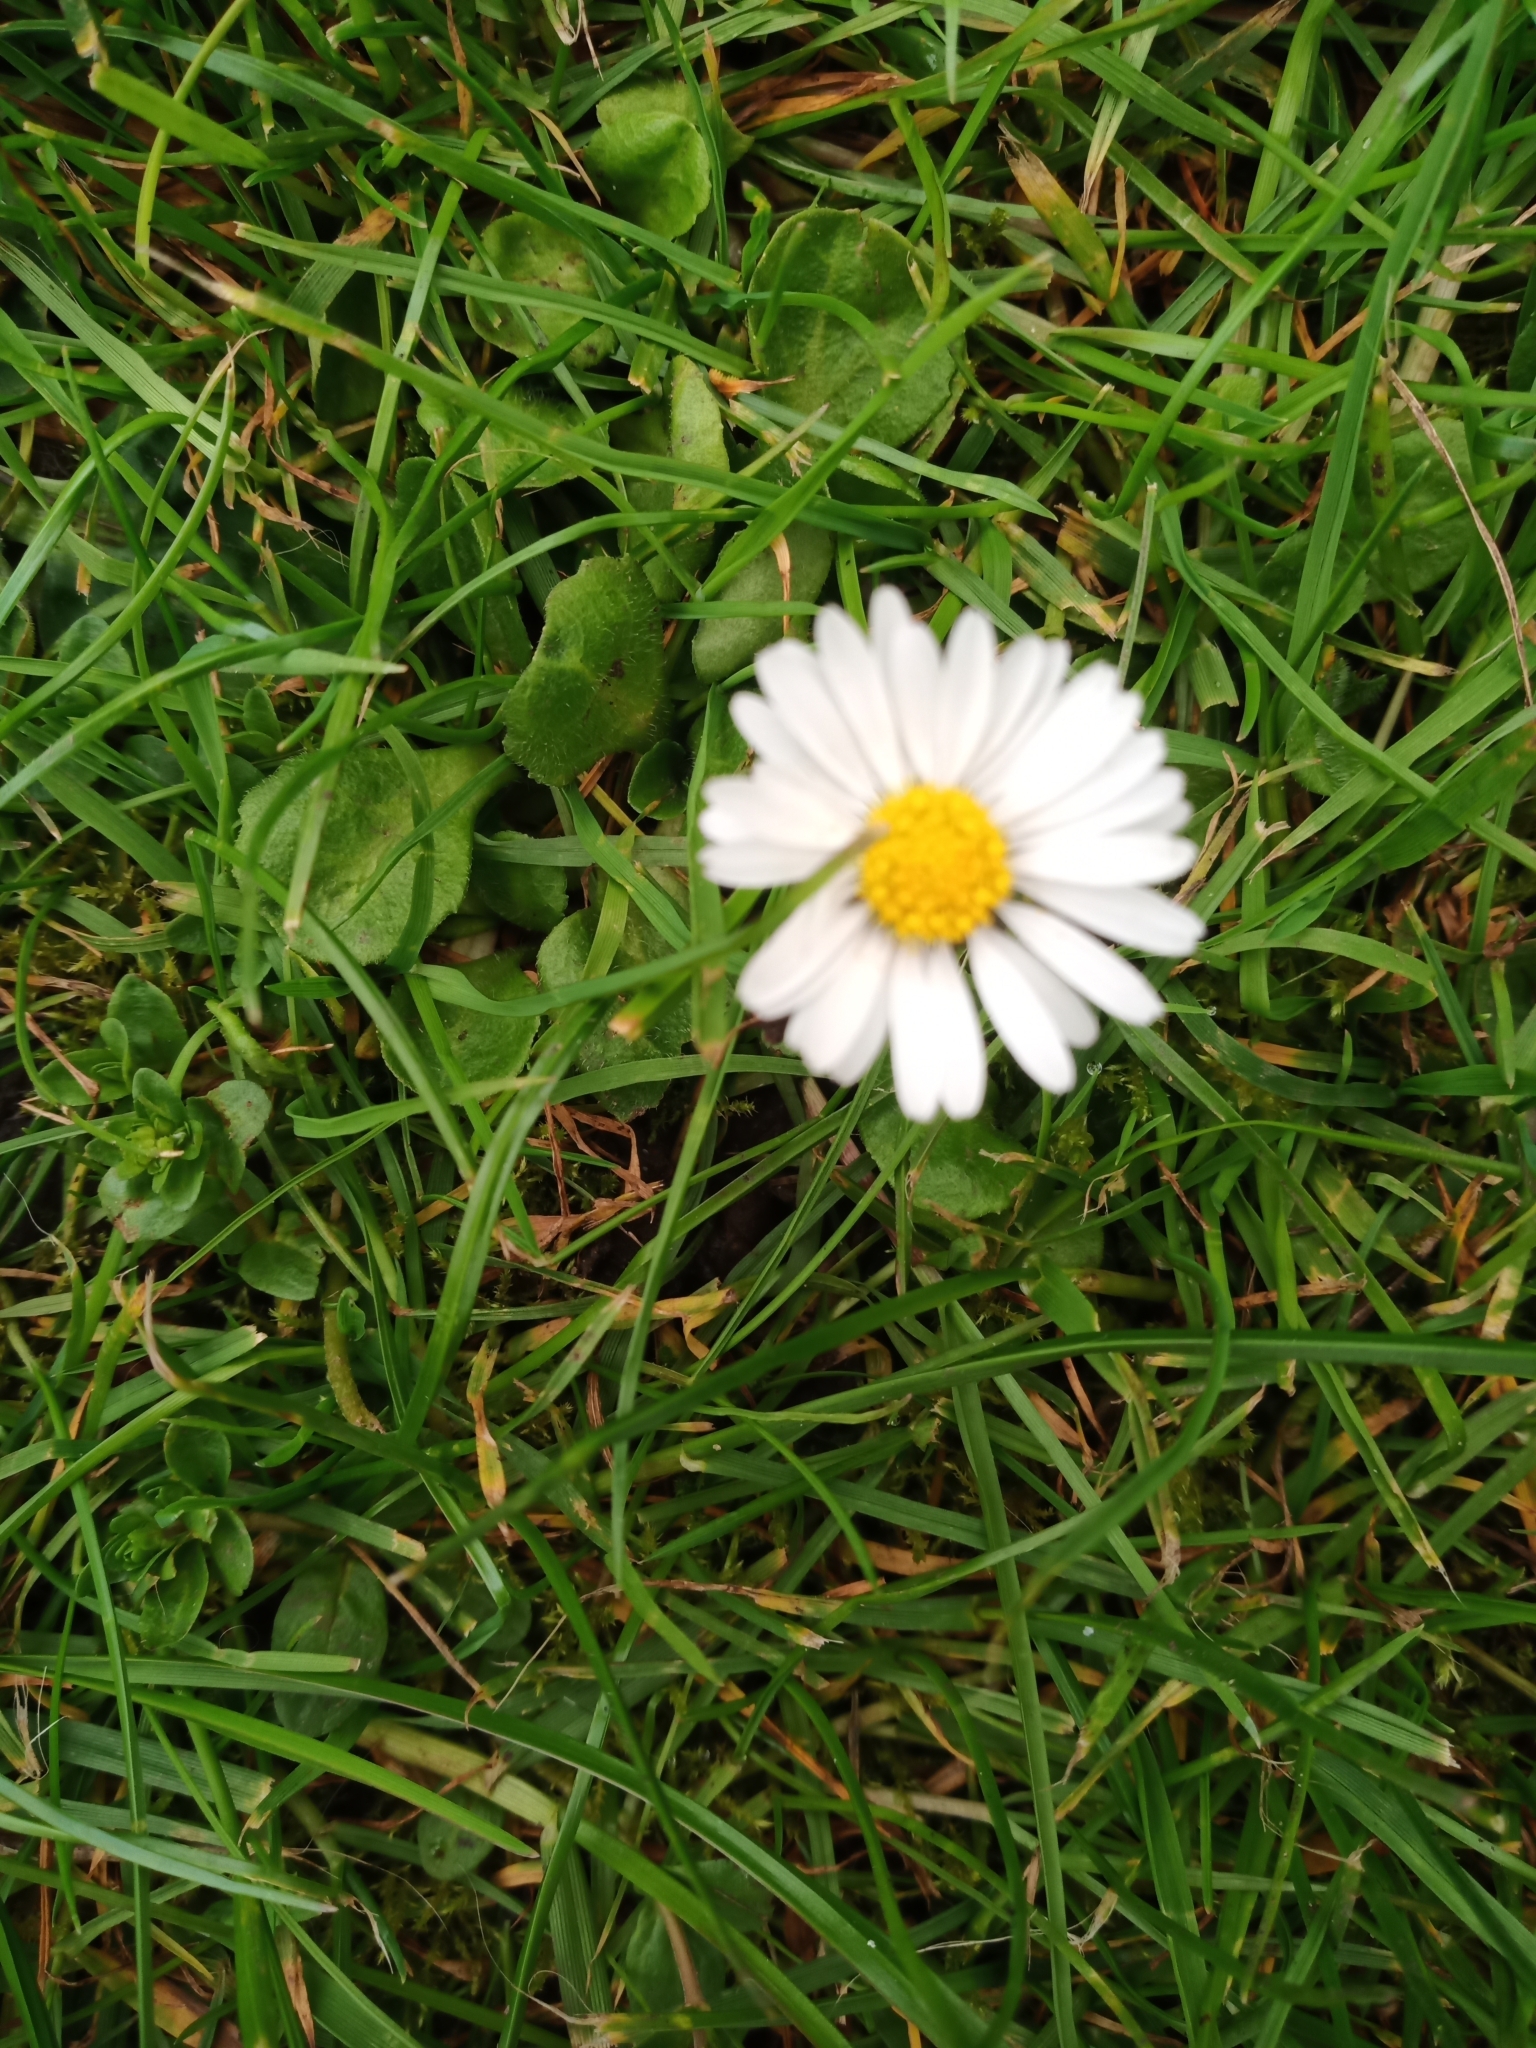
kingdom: Plantae
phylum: Tracheophyta
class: Magnoliopsida
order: Asterales
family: Asteraceae
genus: Bellis
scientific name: Bellis perennis
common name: Lawndaisy
